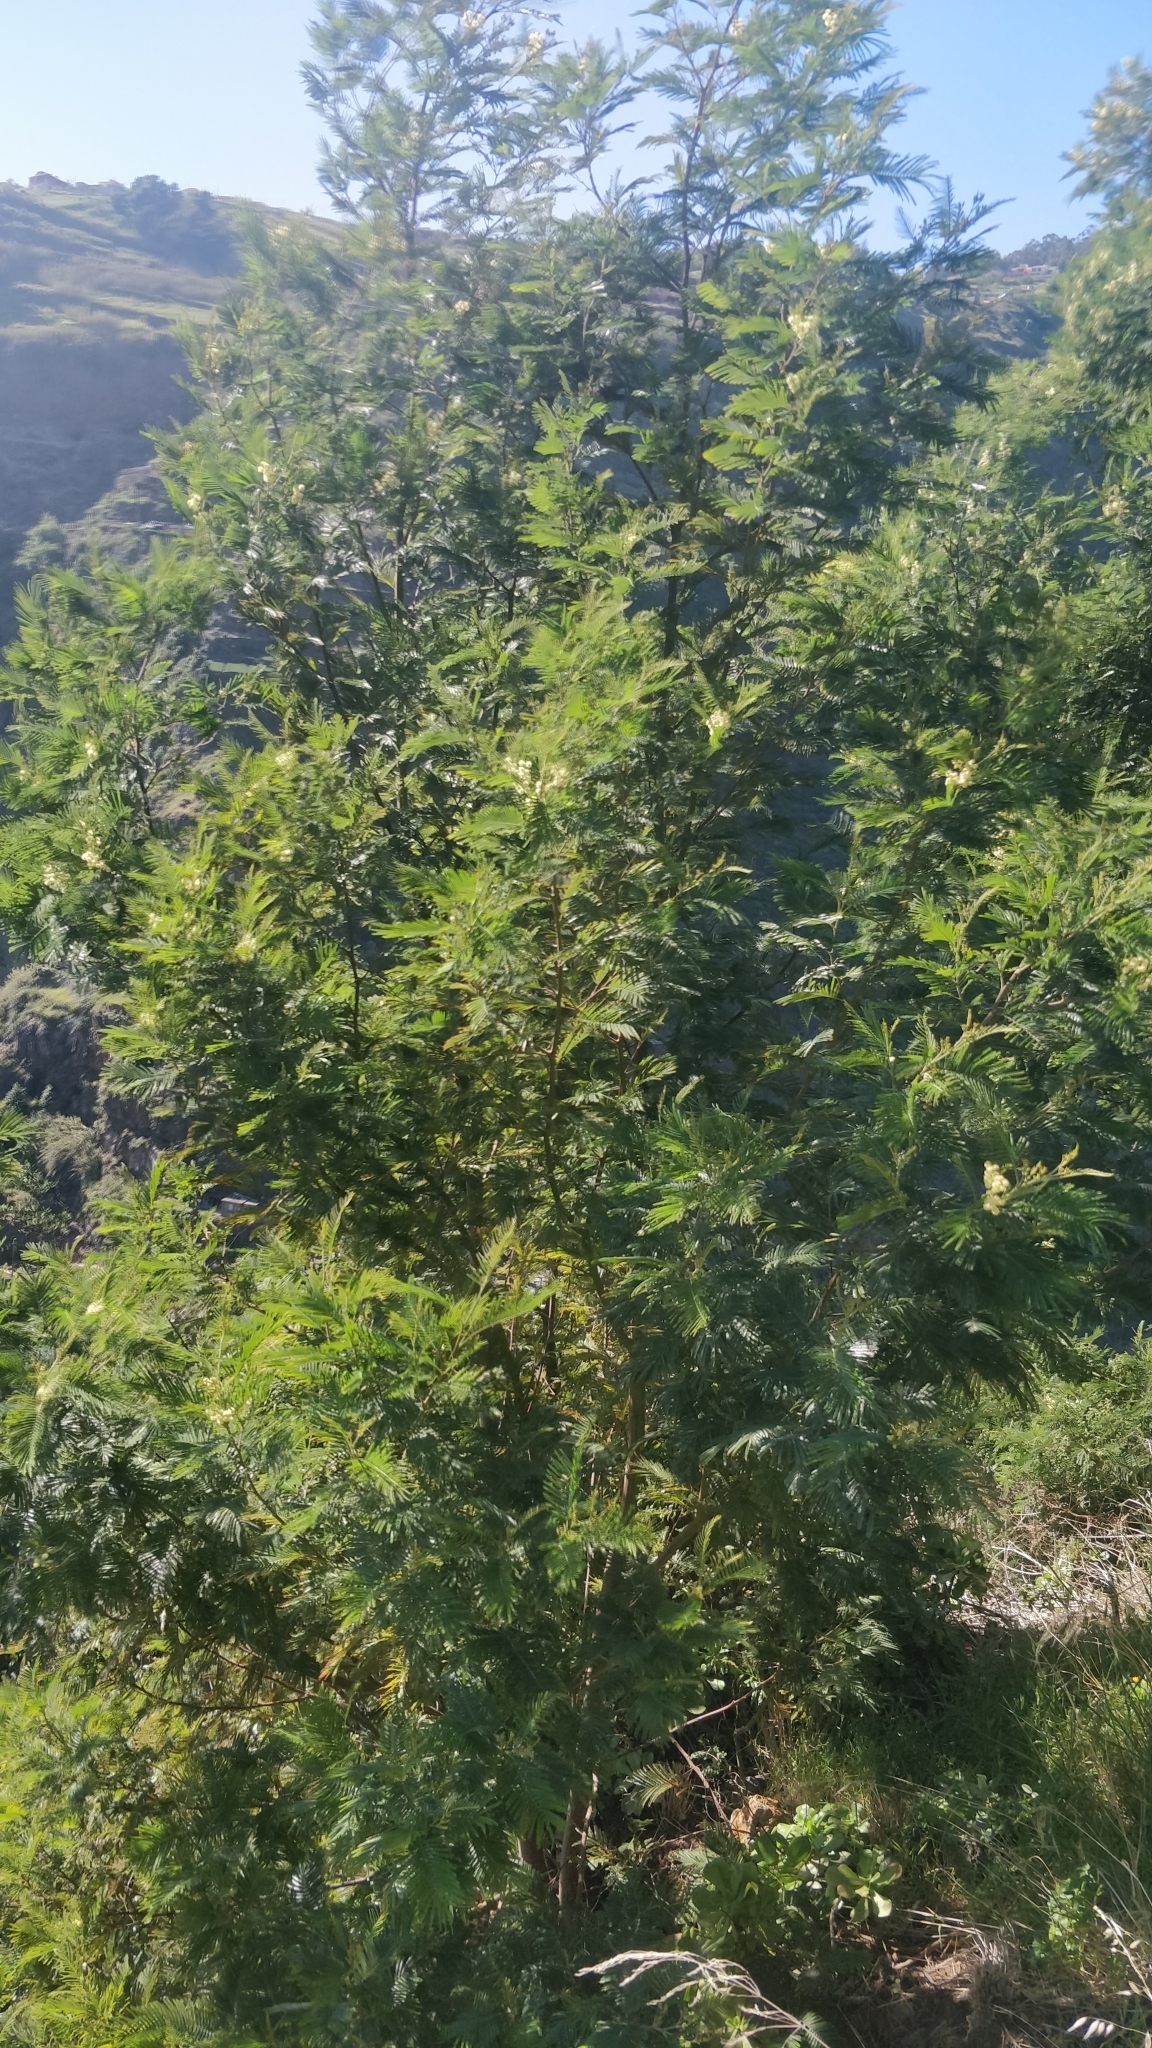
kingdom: Plantae
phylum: Tracheophyta
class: Magnoliopsida
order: Fabales
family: Fabaceae
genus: Acacia
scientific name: Acacia mearnsii
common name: Black wattle
